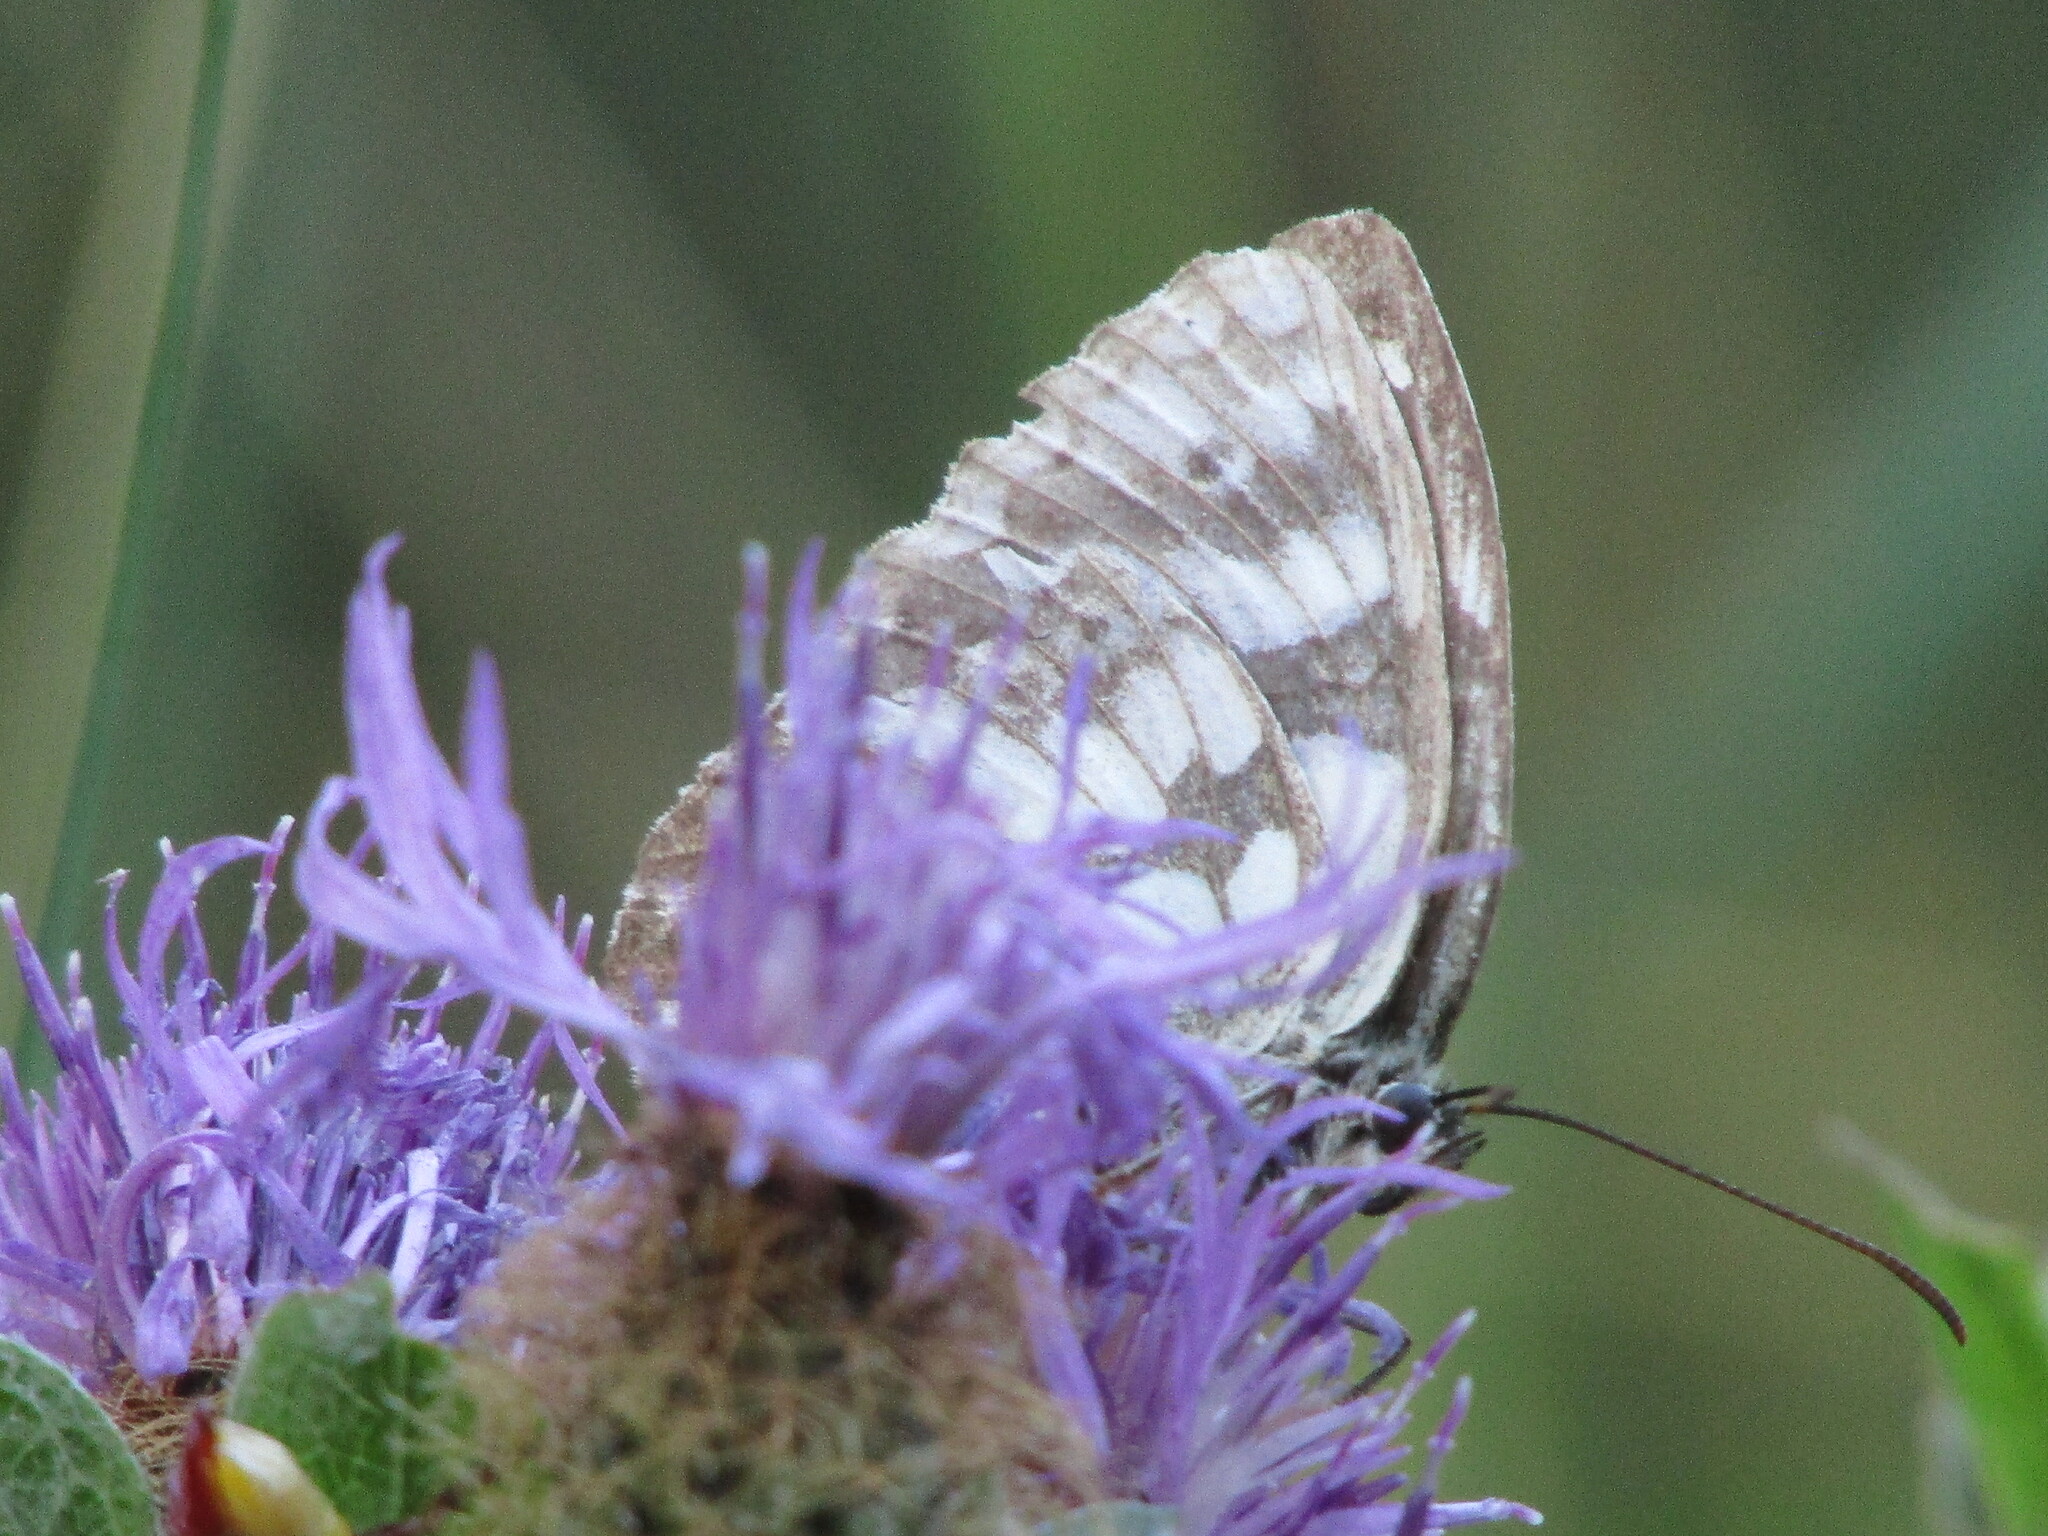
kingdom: Animalia
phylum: Arthropoda
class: Insecta
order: Lepidoptera
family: Nymphalidae
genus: Melanargia
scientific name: Melanargia galathea
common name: Marbled white
